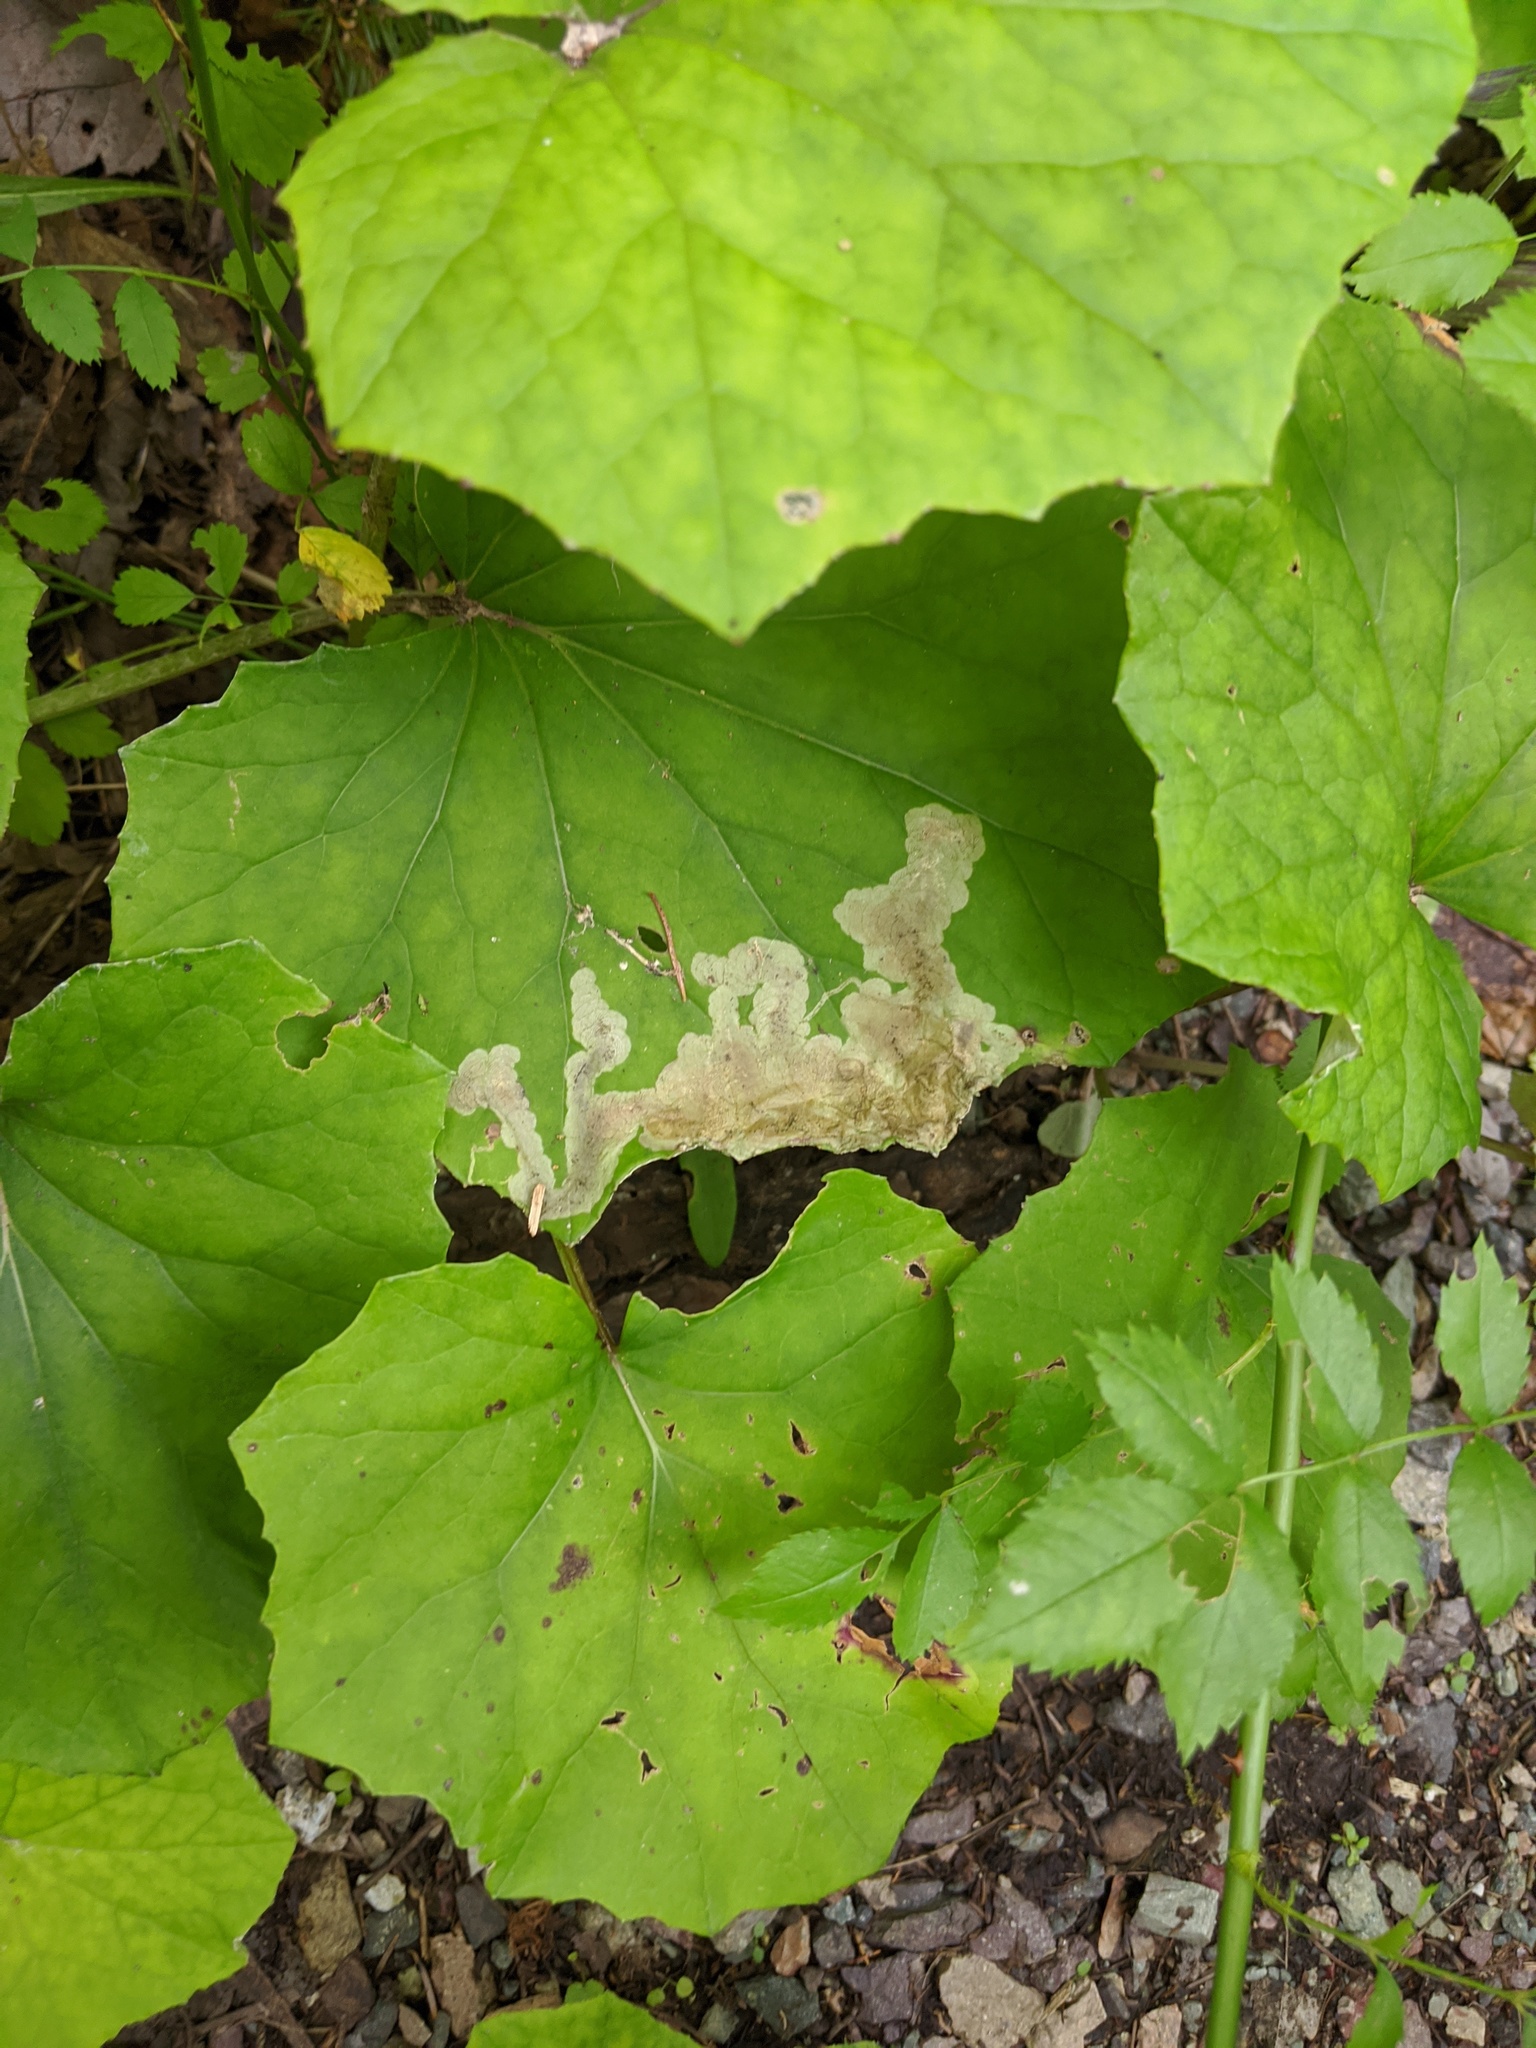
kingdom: Animalia
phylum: Arthropoda
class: Insecta
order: Diptera
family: Tephritidae
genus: Acidia
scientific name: Acidia cognata
